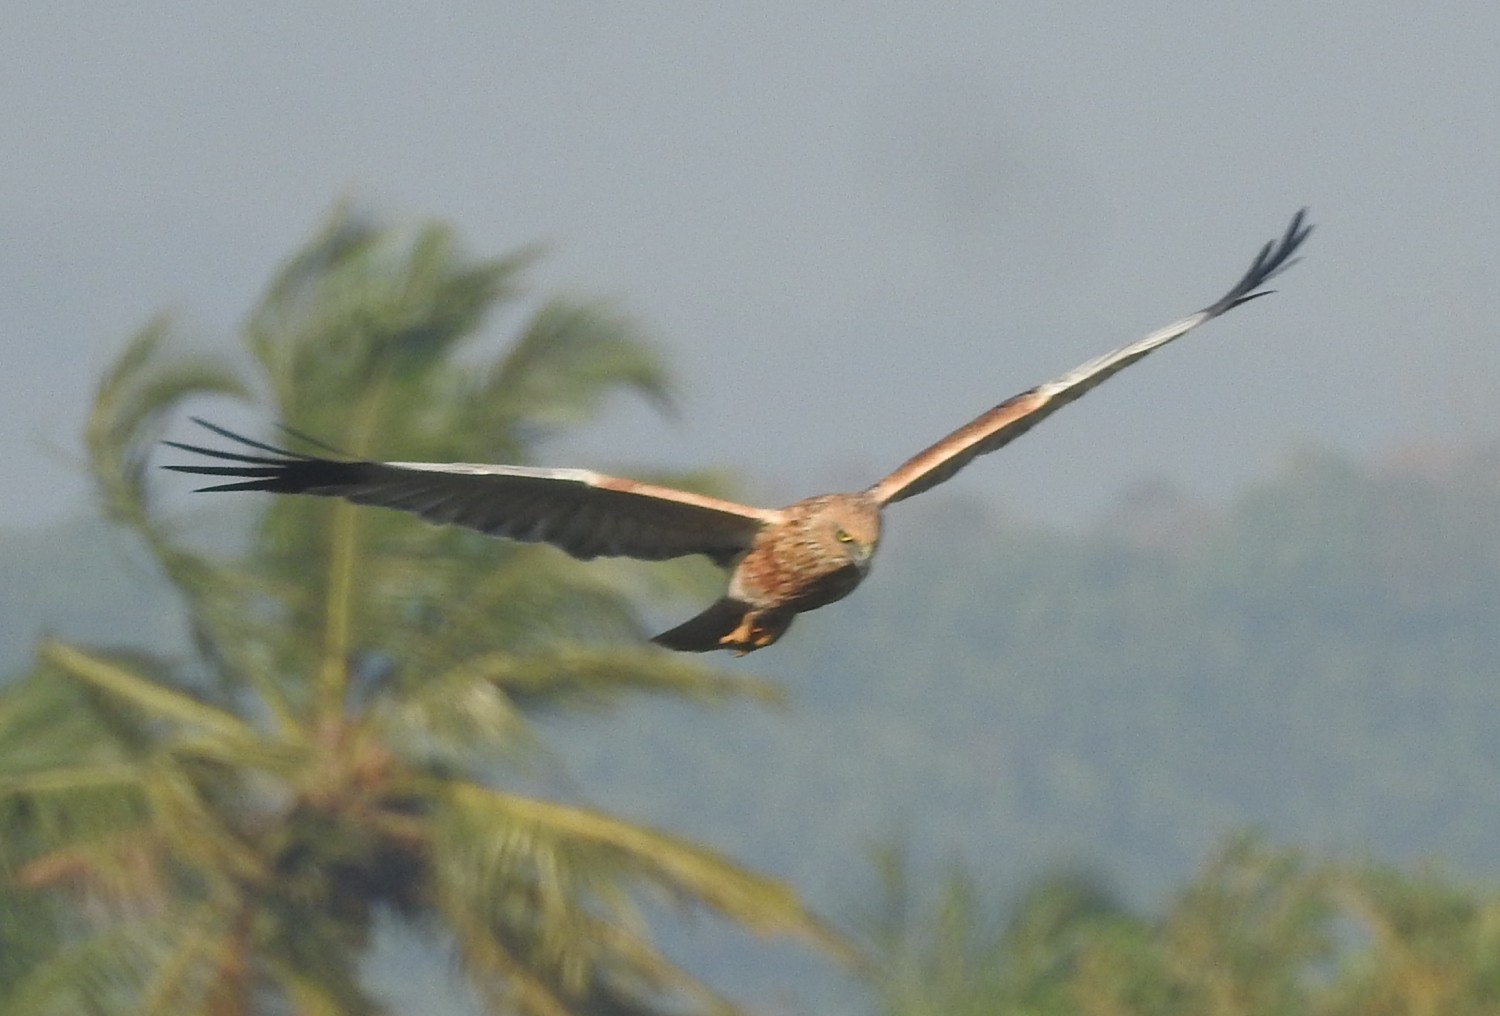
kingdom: Animalia
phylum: Chordata
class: Aves
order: Accipitriformes
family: Accipitridae
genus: Circus
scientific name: Circus aeruginosus
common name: Western marsh harrier
